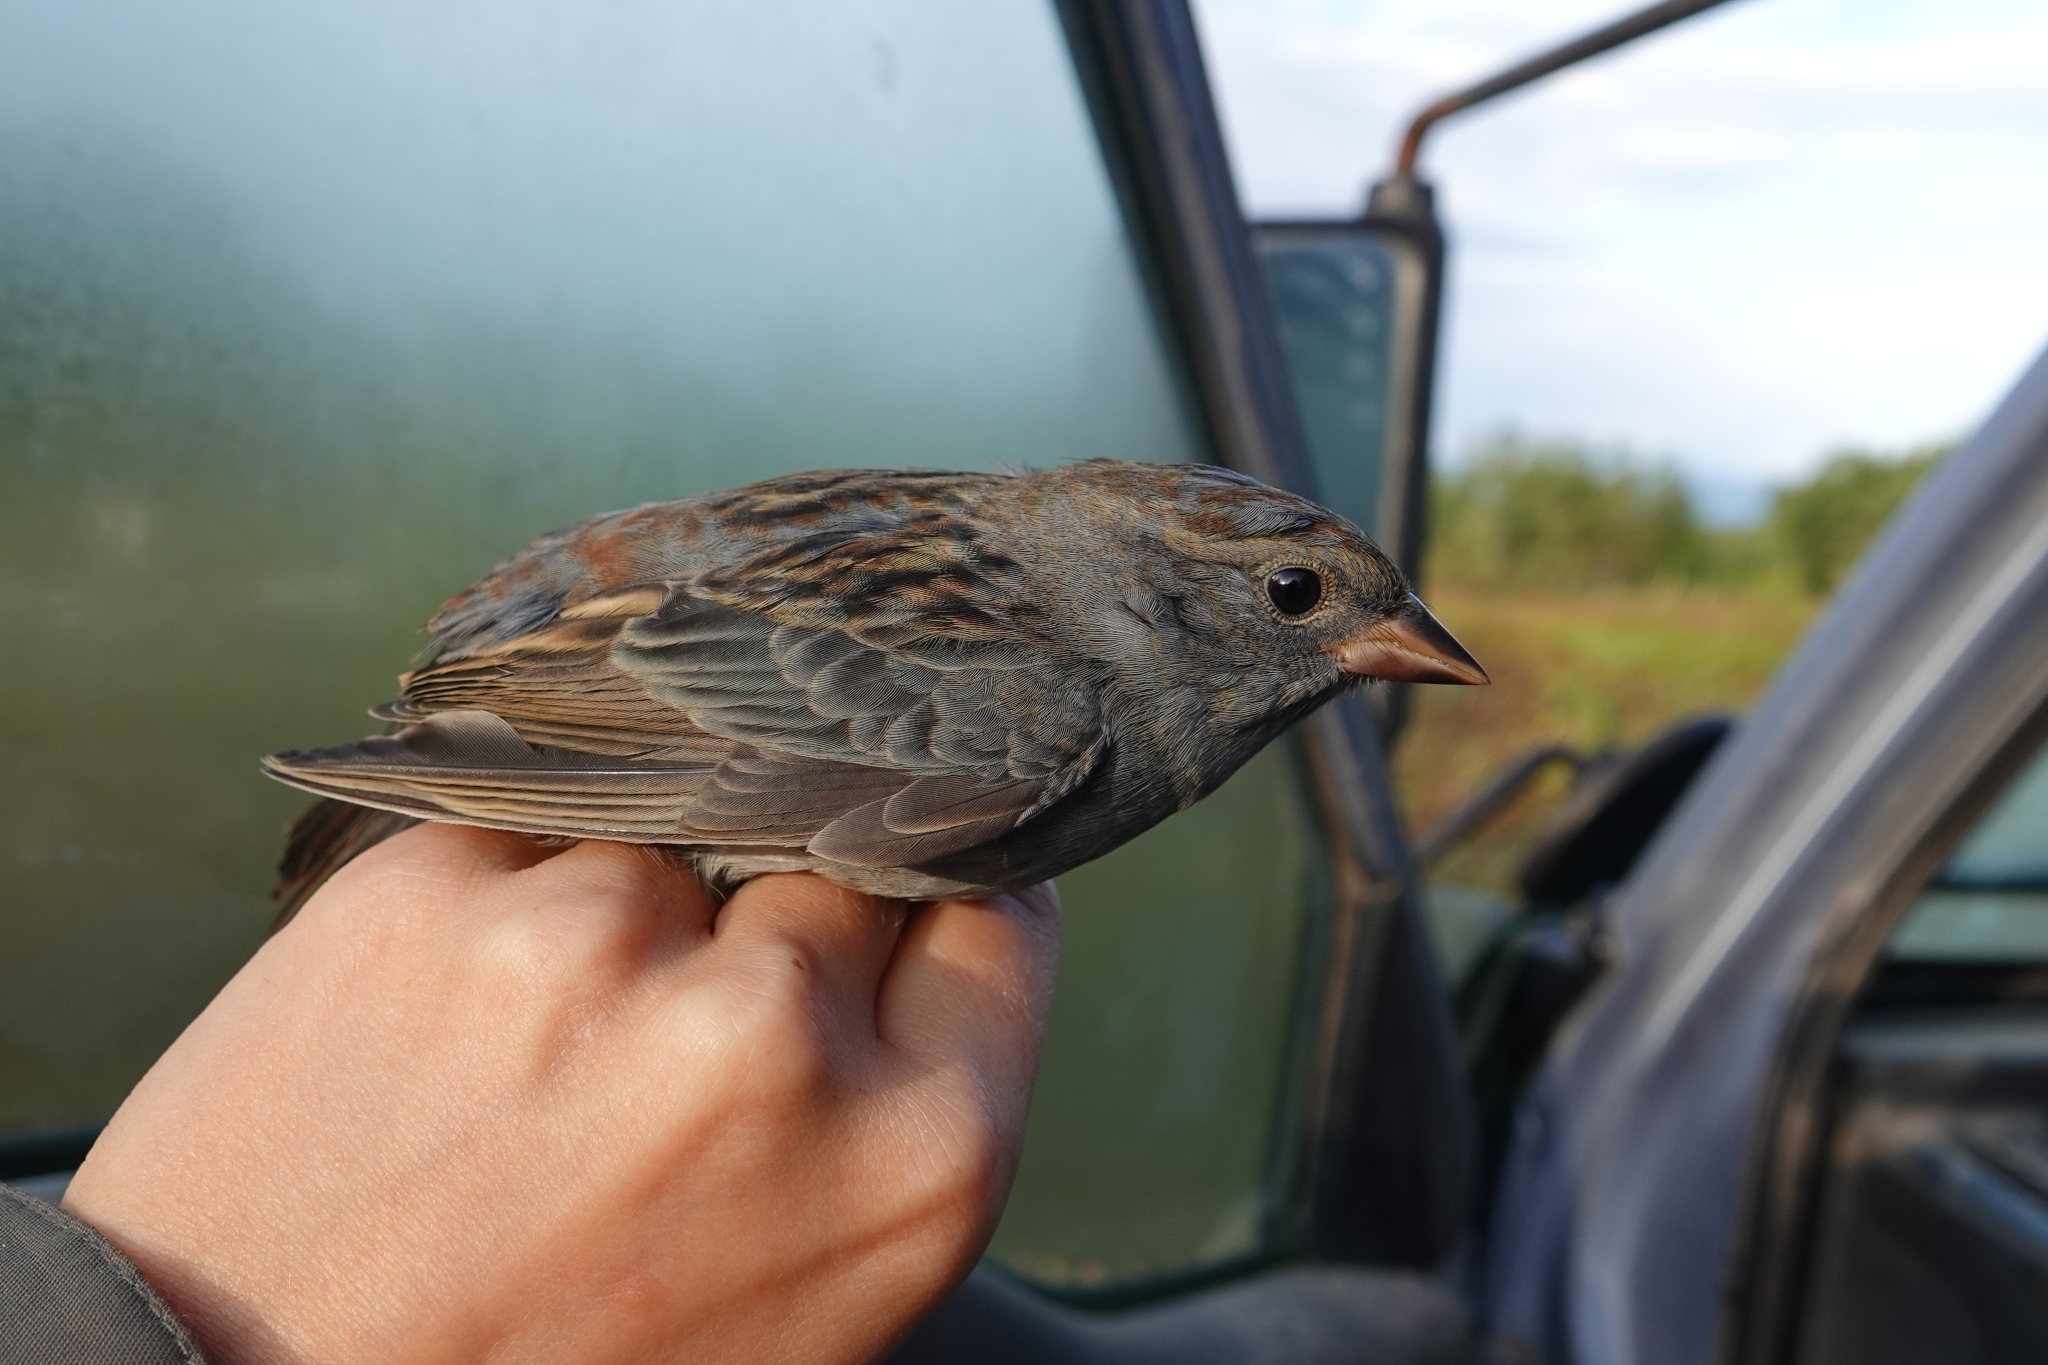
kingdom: Animalia
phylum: Chordata
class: Aves
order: Passeriformes
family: Emberizidae
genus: Emberiza
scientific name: Emberiza variabilis
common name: Gray bunting
